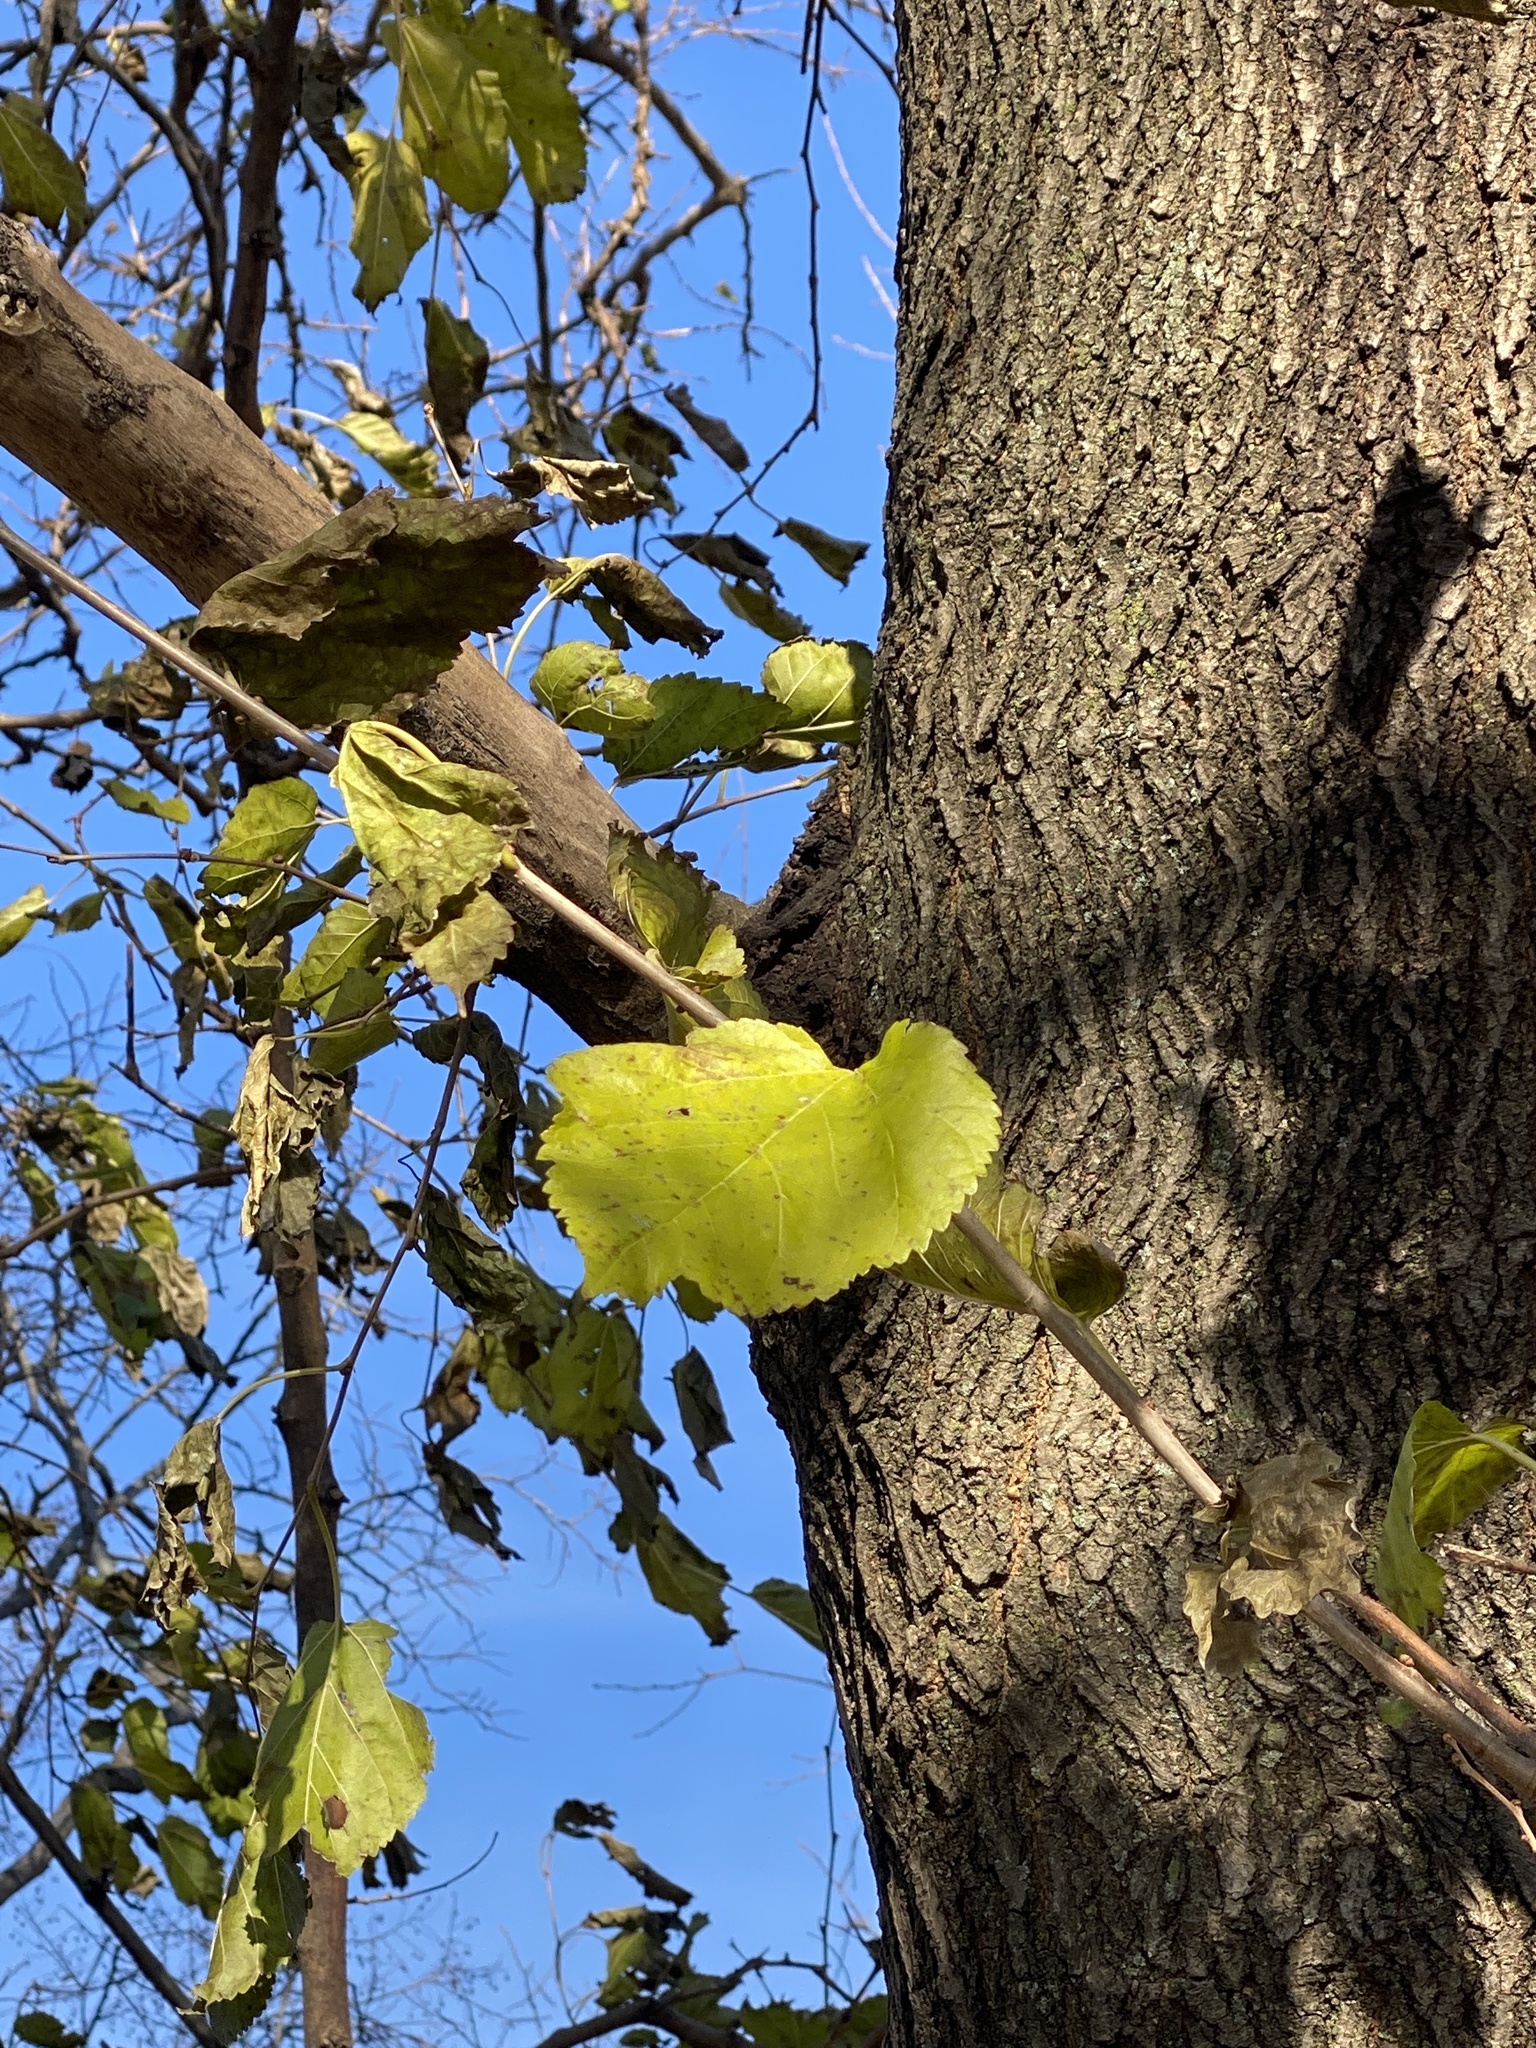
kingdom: Plantae
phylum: Tracheophyta
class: Magnoliopsida
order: Rosales
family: Moraceae
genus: Morus
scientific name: Morus alba
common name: White mulberry
